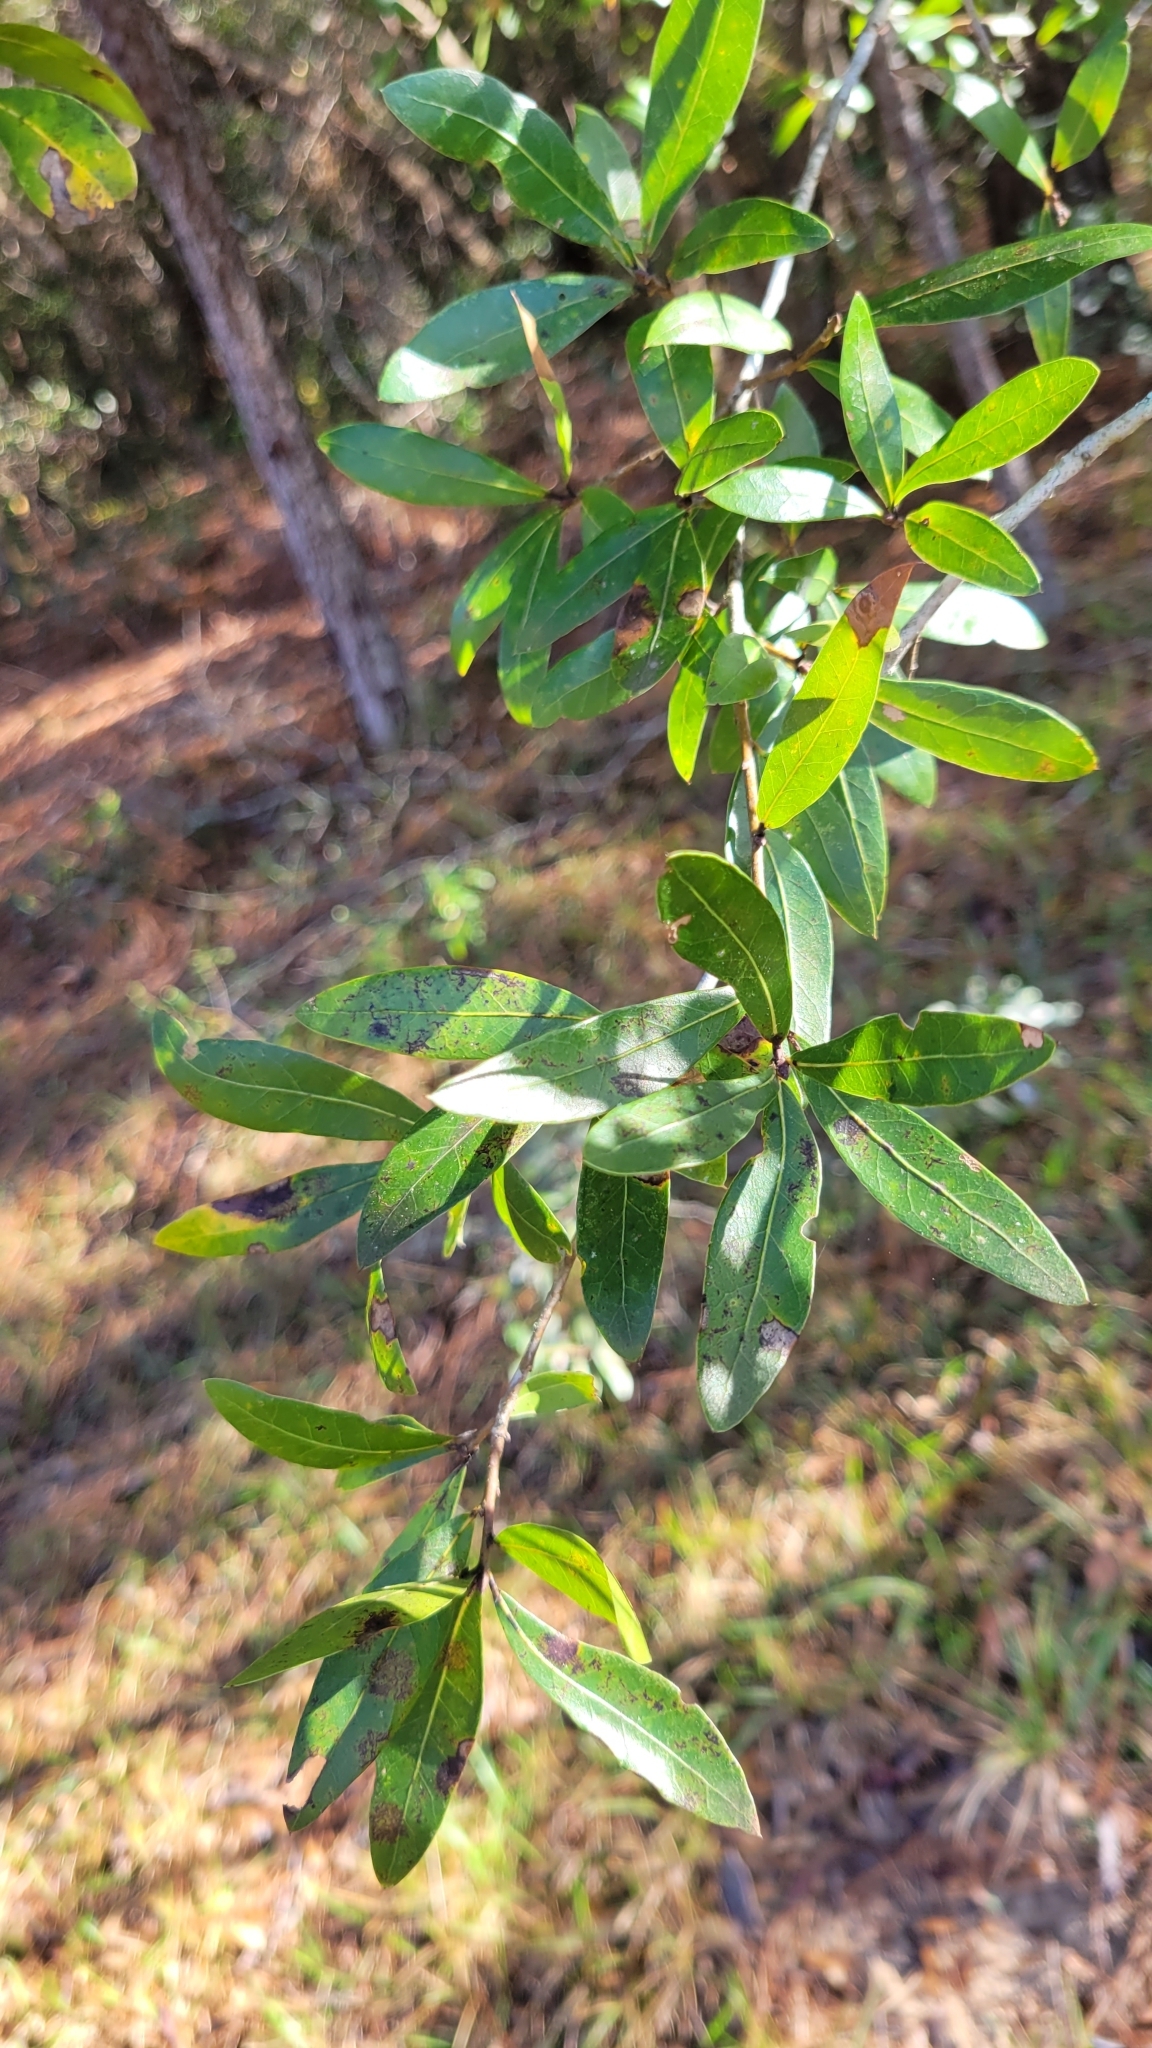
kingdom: Plantae
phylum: Tracheophyta
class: Magnoliopsida
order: Fagales
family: Fagaceae
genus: Quercus
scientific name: Quercus hemisphaerica
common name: Darlington oak
